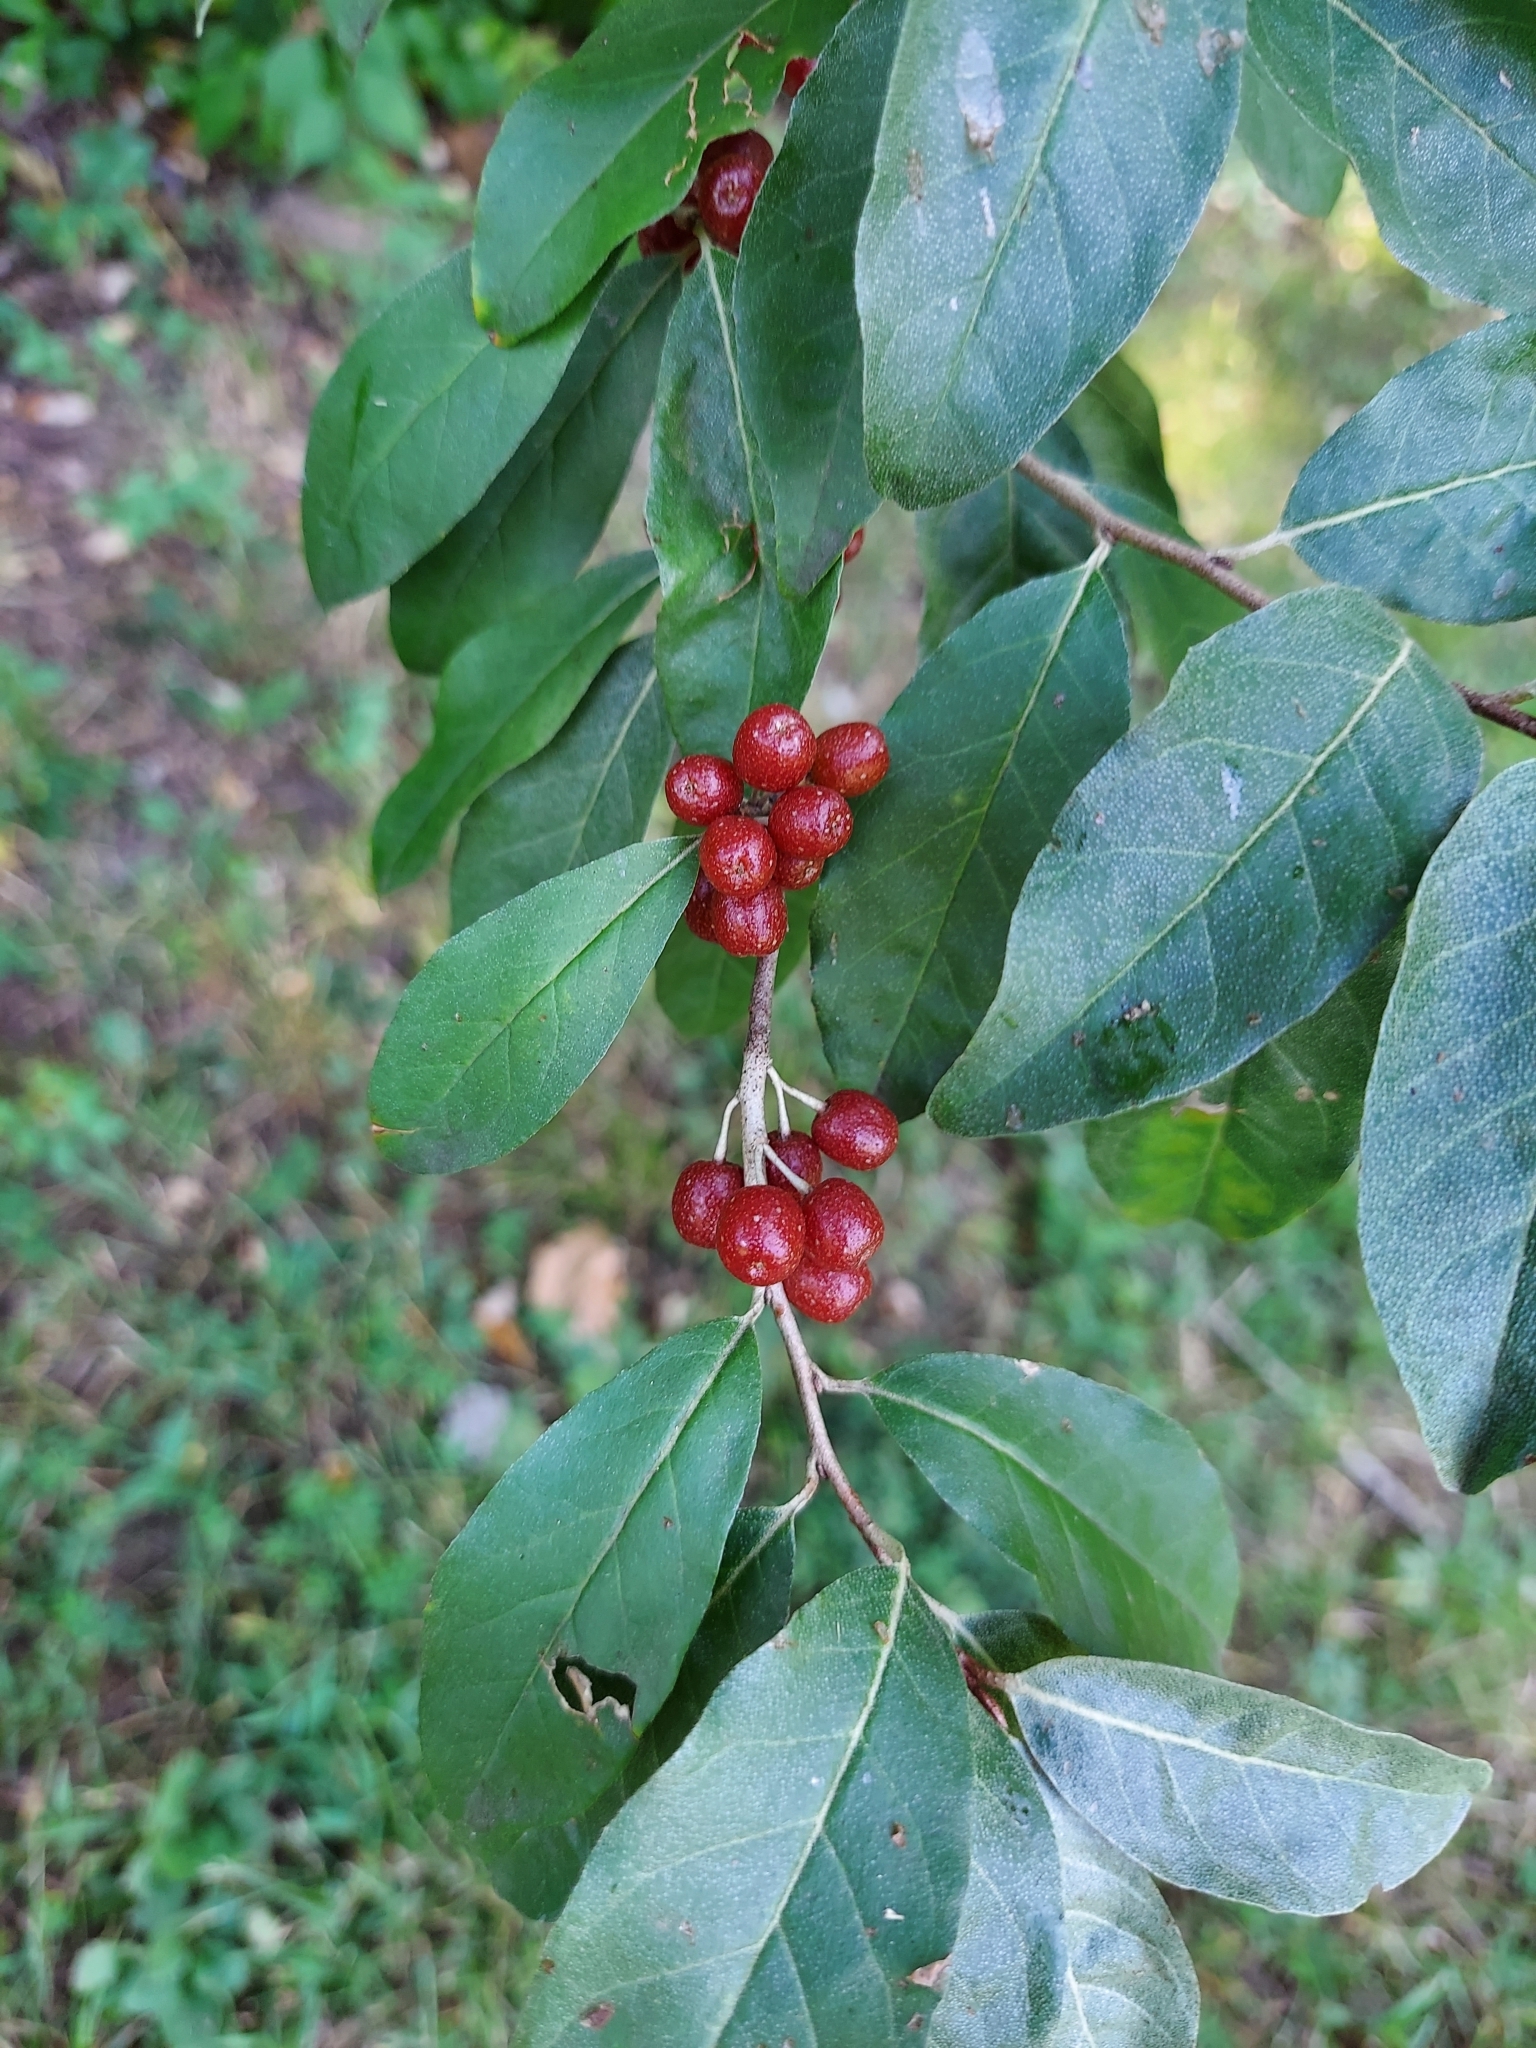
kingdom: Plantae
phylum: Tracheophyta
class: Magnoliopsida
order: Rosales
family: Elaeagnaceae
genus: Elaeagnus
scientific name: Elaeagnus umbellata
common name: Autumn olive
